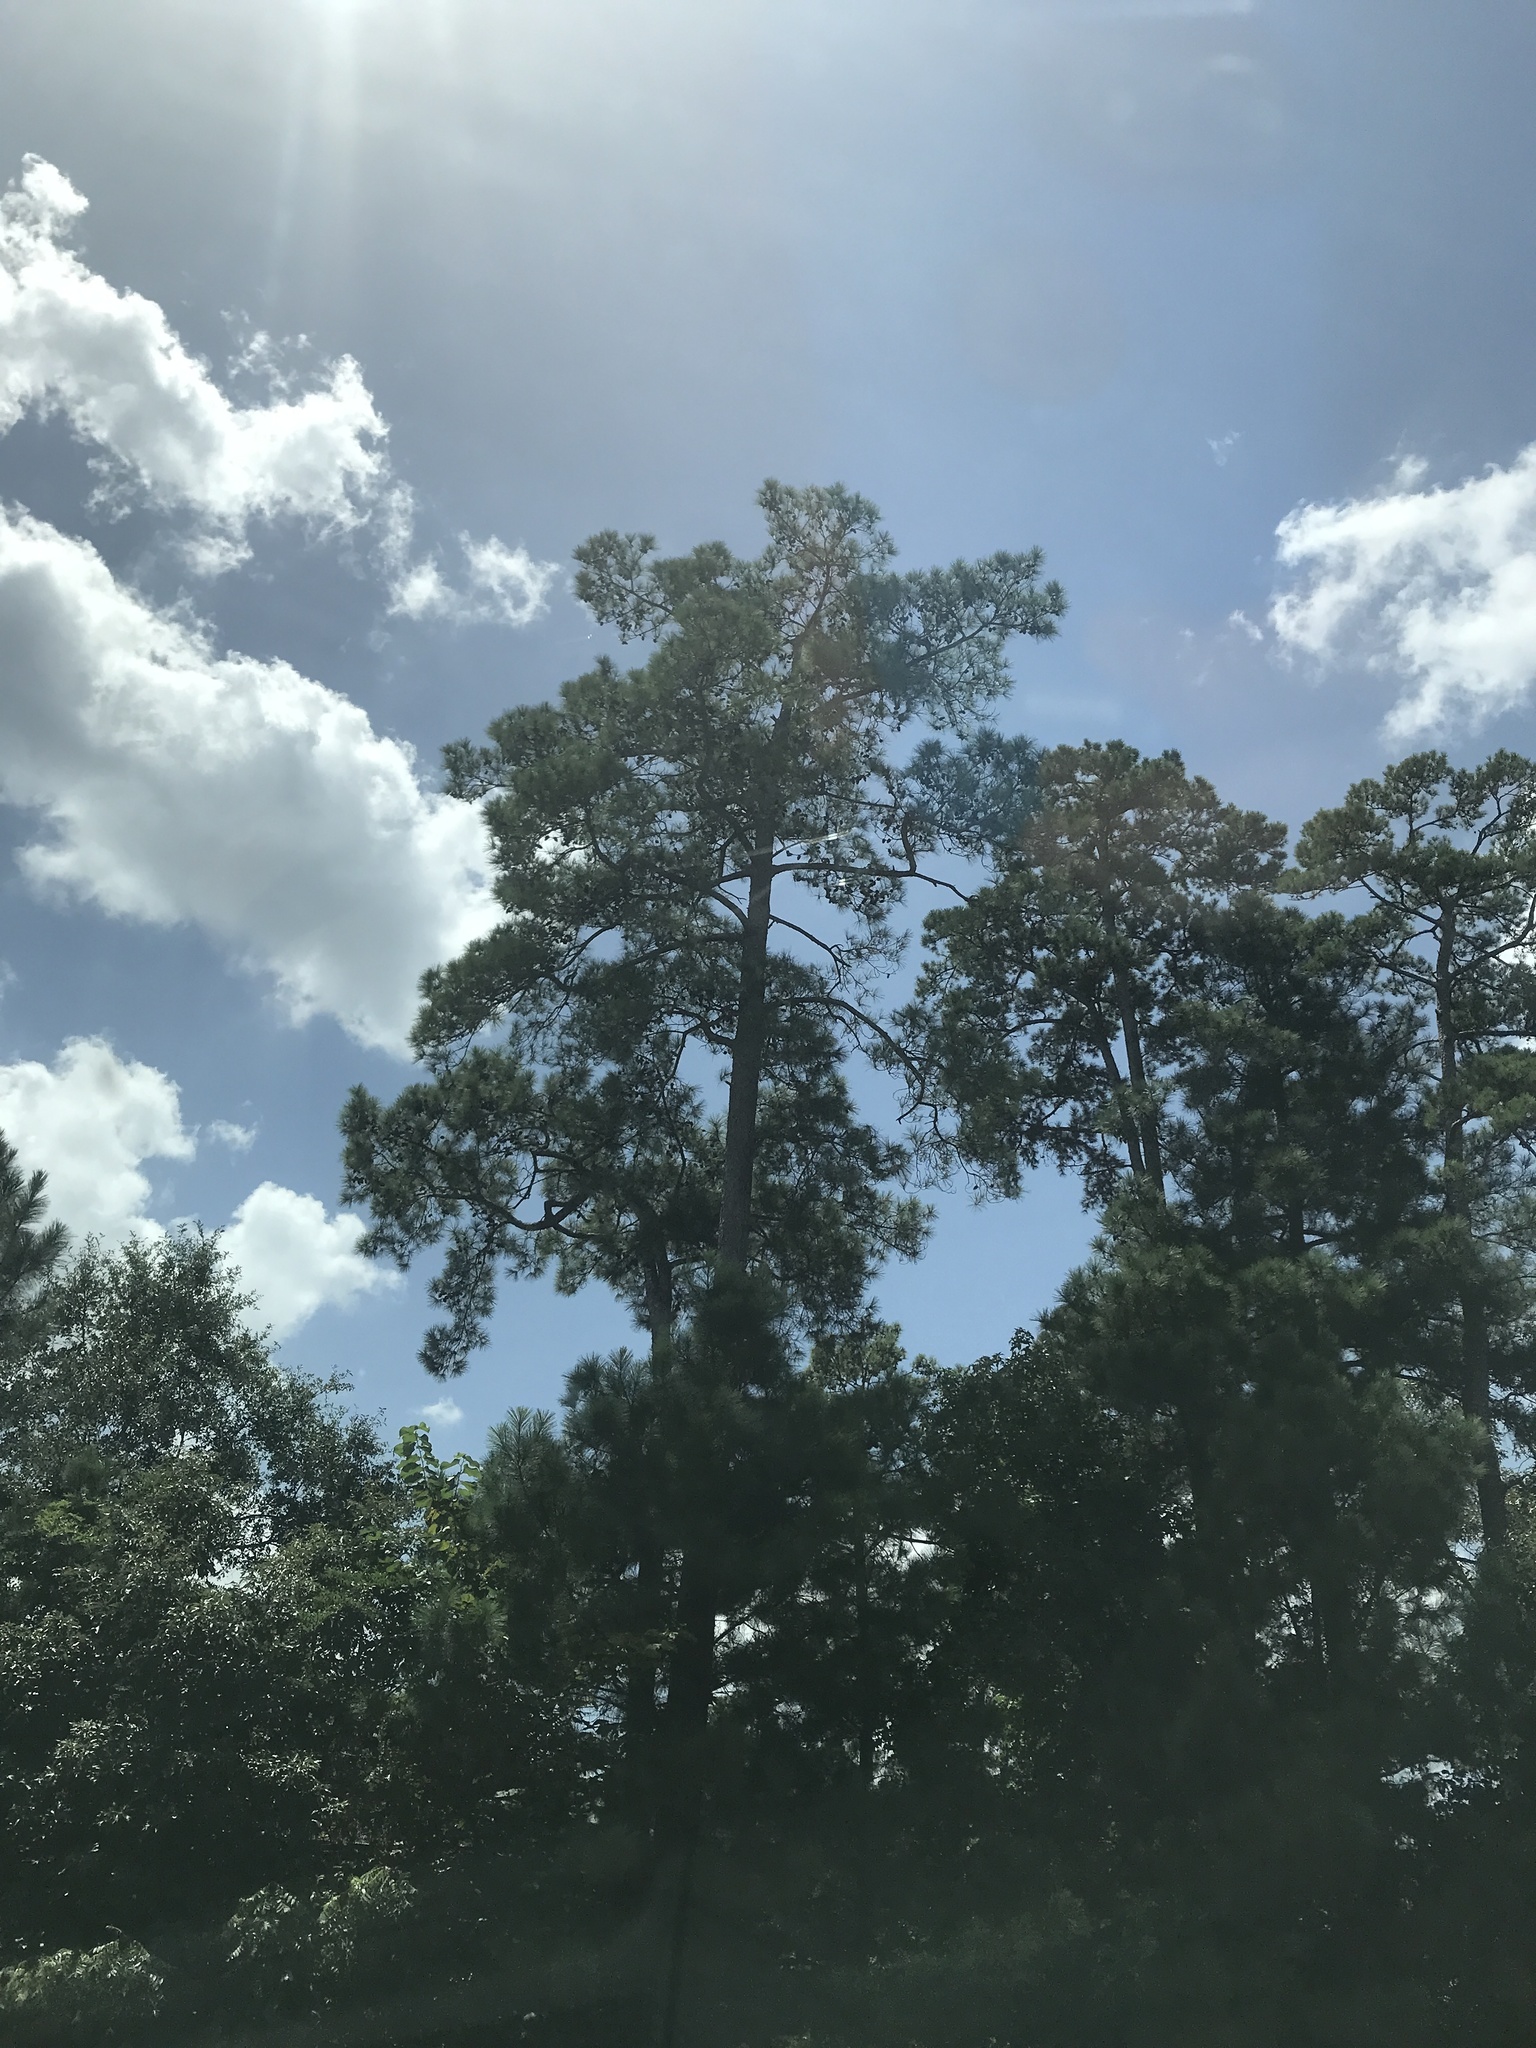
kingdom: Plantae
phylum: Tracheophyta
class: Pinopsida
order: Pinales
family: Pinaceae
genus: Pinus
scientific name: Pinus echinata
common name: Shortleaf pine
